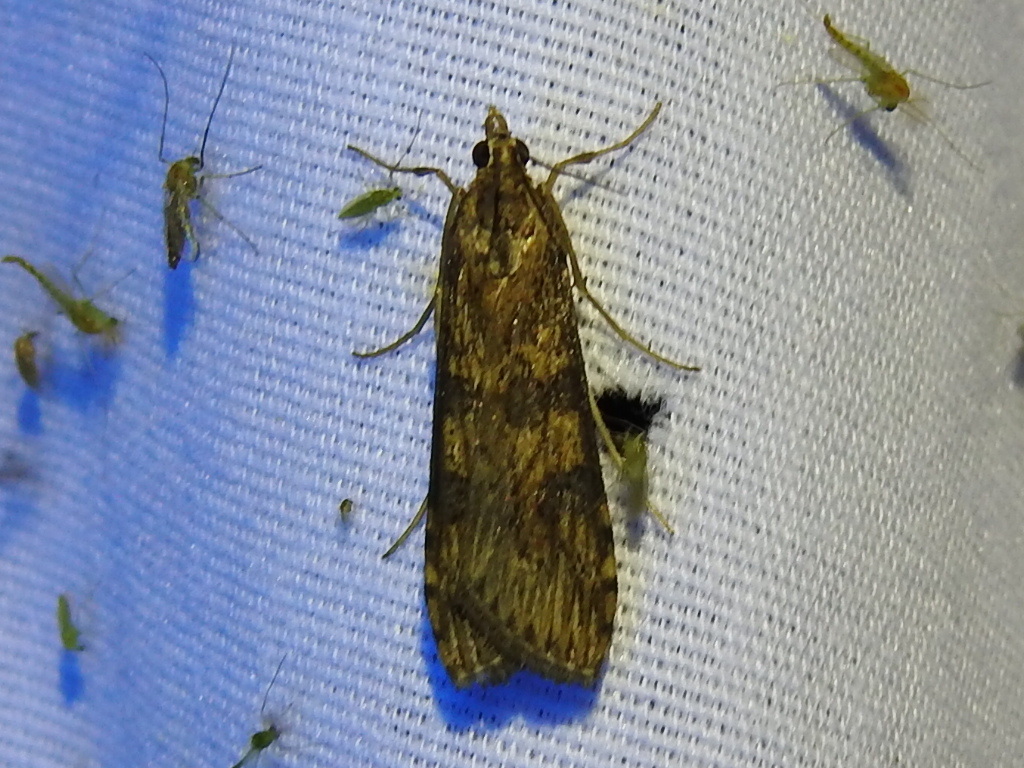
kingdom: Animalia
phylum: Arthropoda
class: Insecta
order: Lepidoptera
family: Crambidae
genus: Nomophila
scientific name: Nomophila nearctica
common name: American rush veneer
